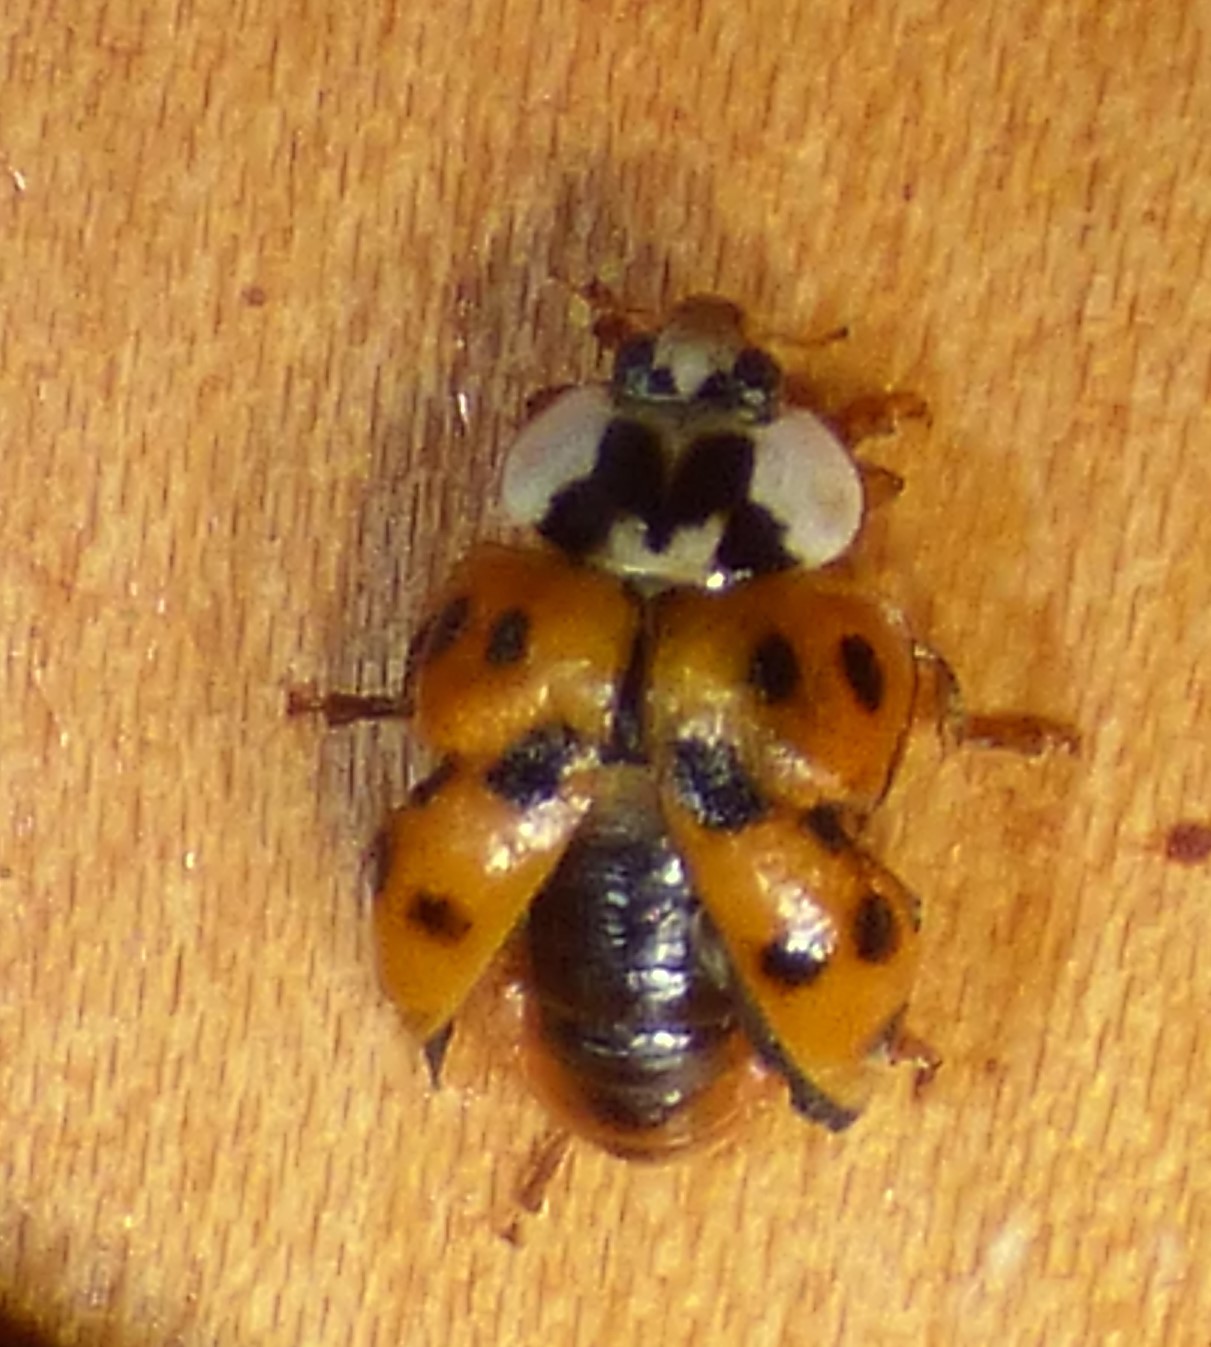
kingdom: Animalia
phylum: Arthropoda
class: Insecta
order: Coleoptera
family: Coccinellidae
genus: Harmonia
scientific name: Harmonia axyridis
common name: Harlequin ladybird
